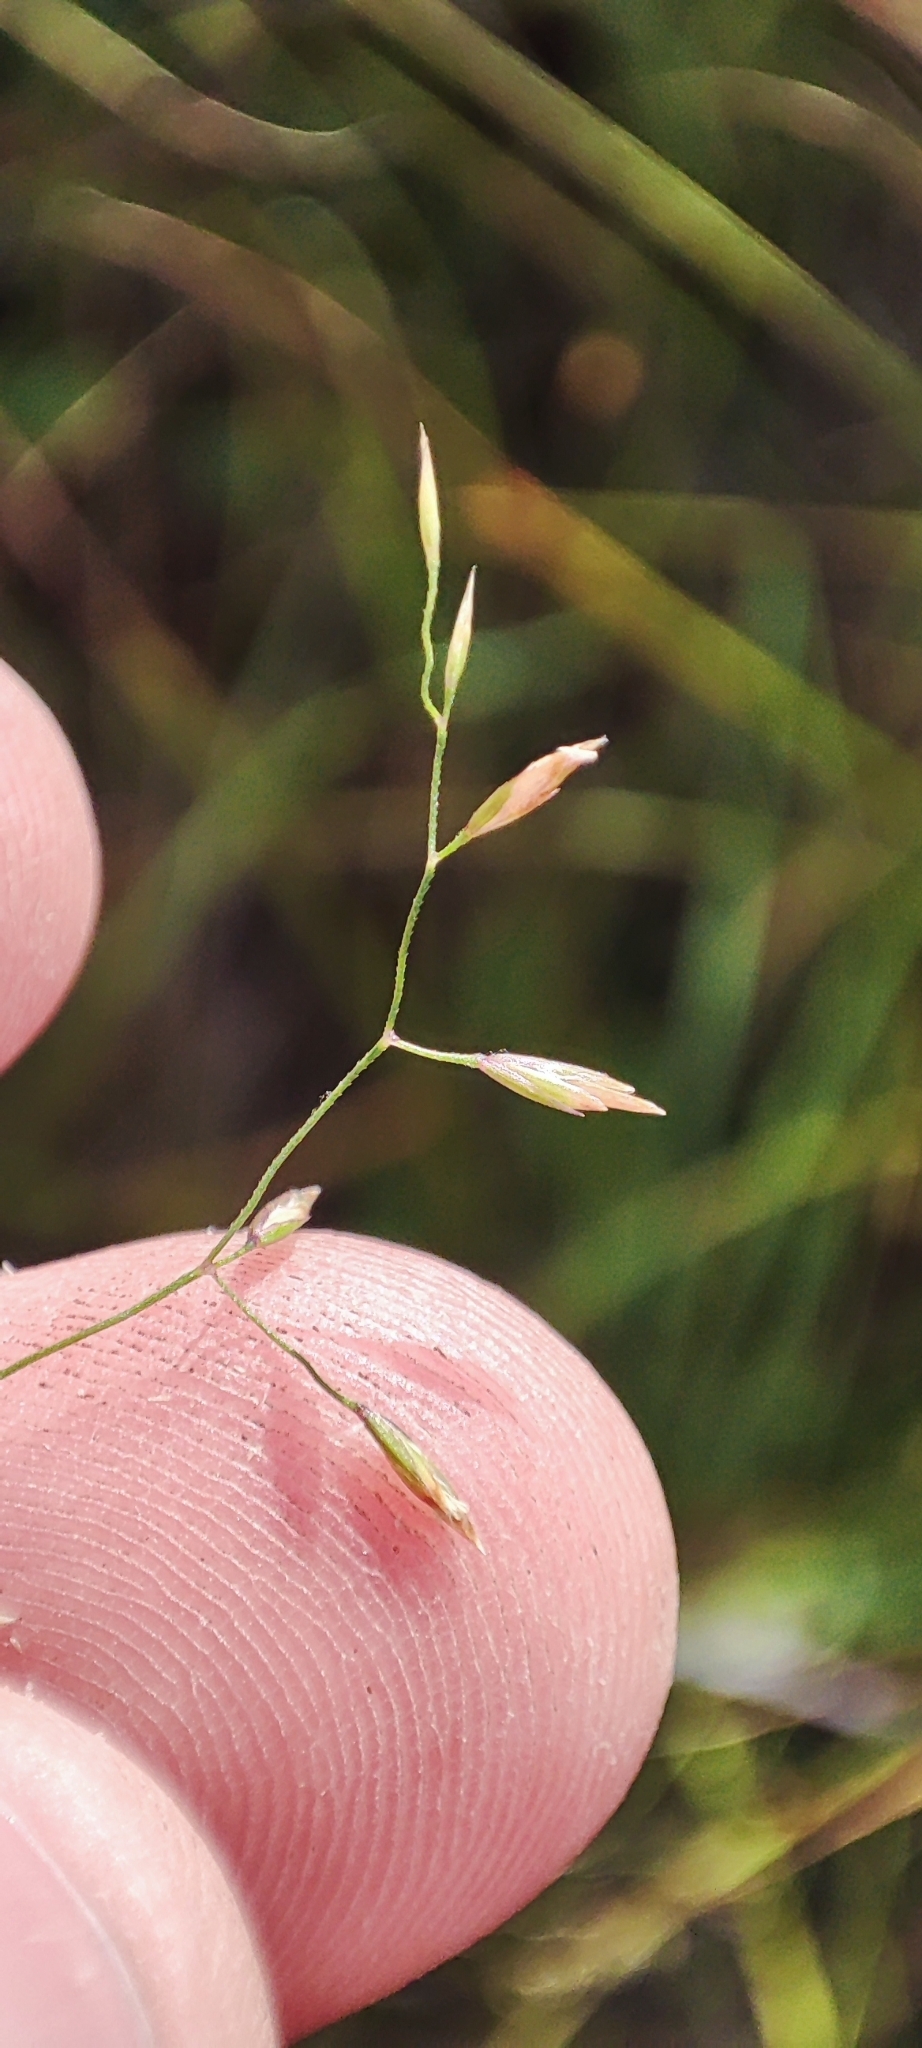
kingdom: Plantae
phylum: Tracheophyta
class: Liliopsida
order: Poales
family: Poaceae
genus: Poa
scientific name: Poa palustris
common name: Swamp meadow-grass
